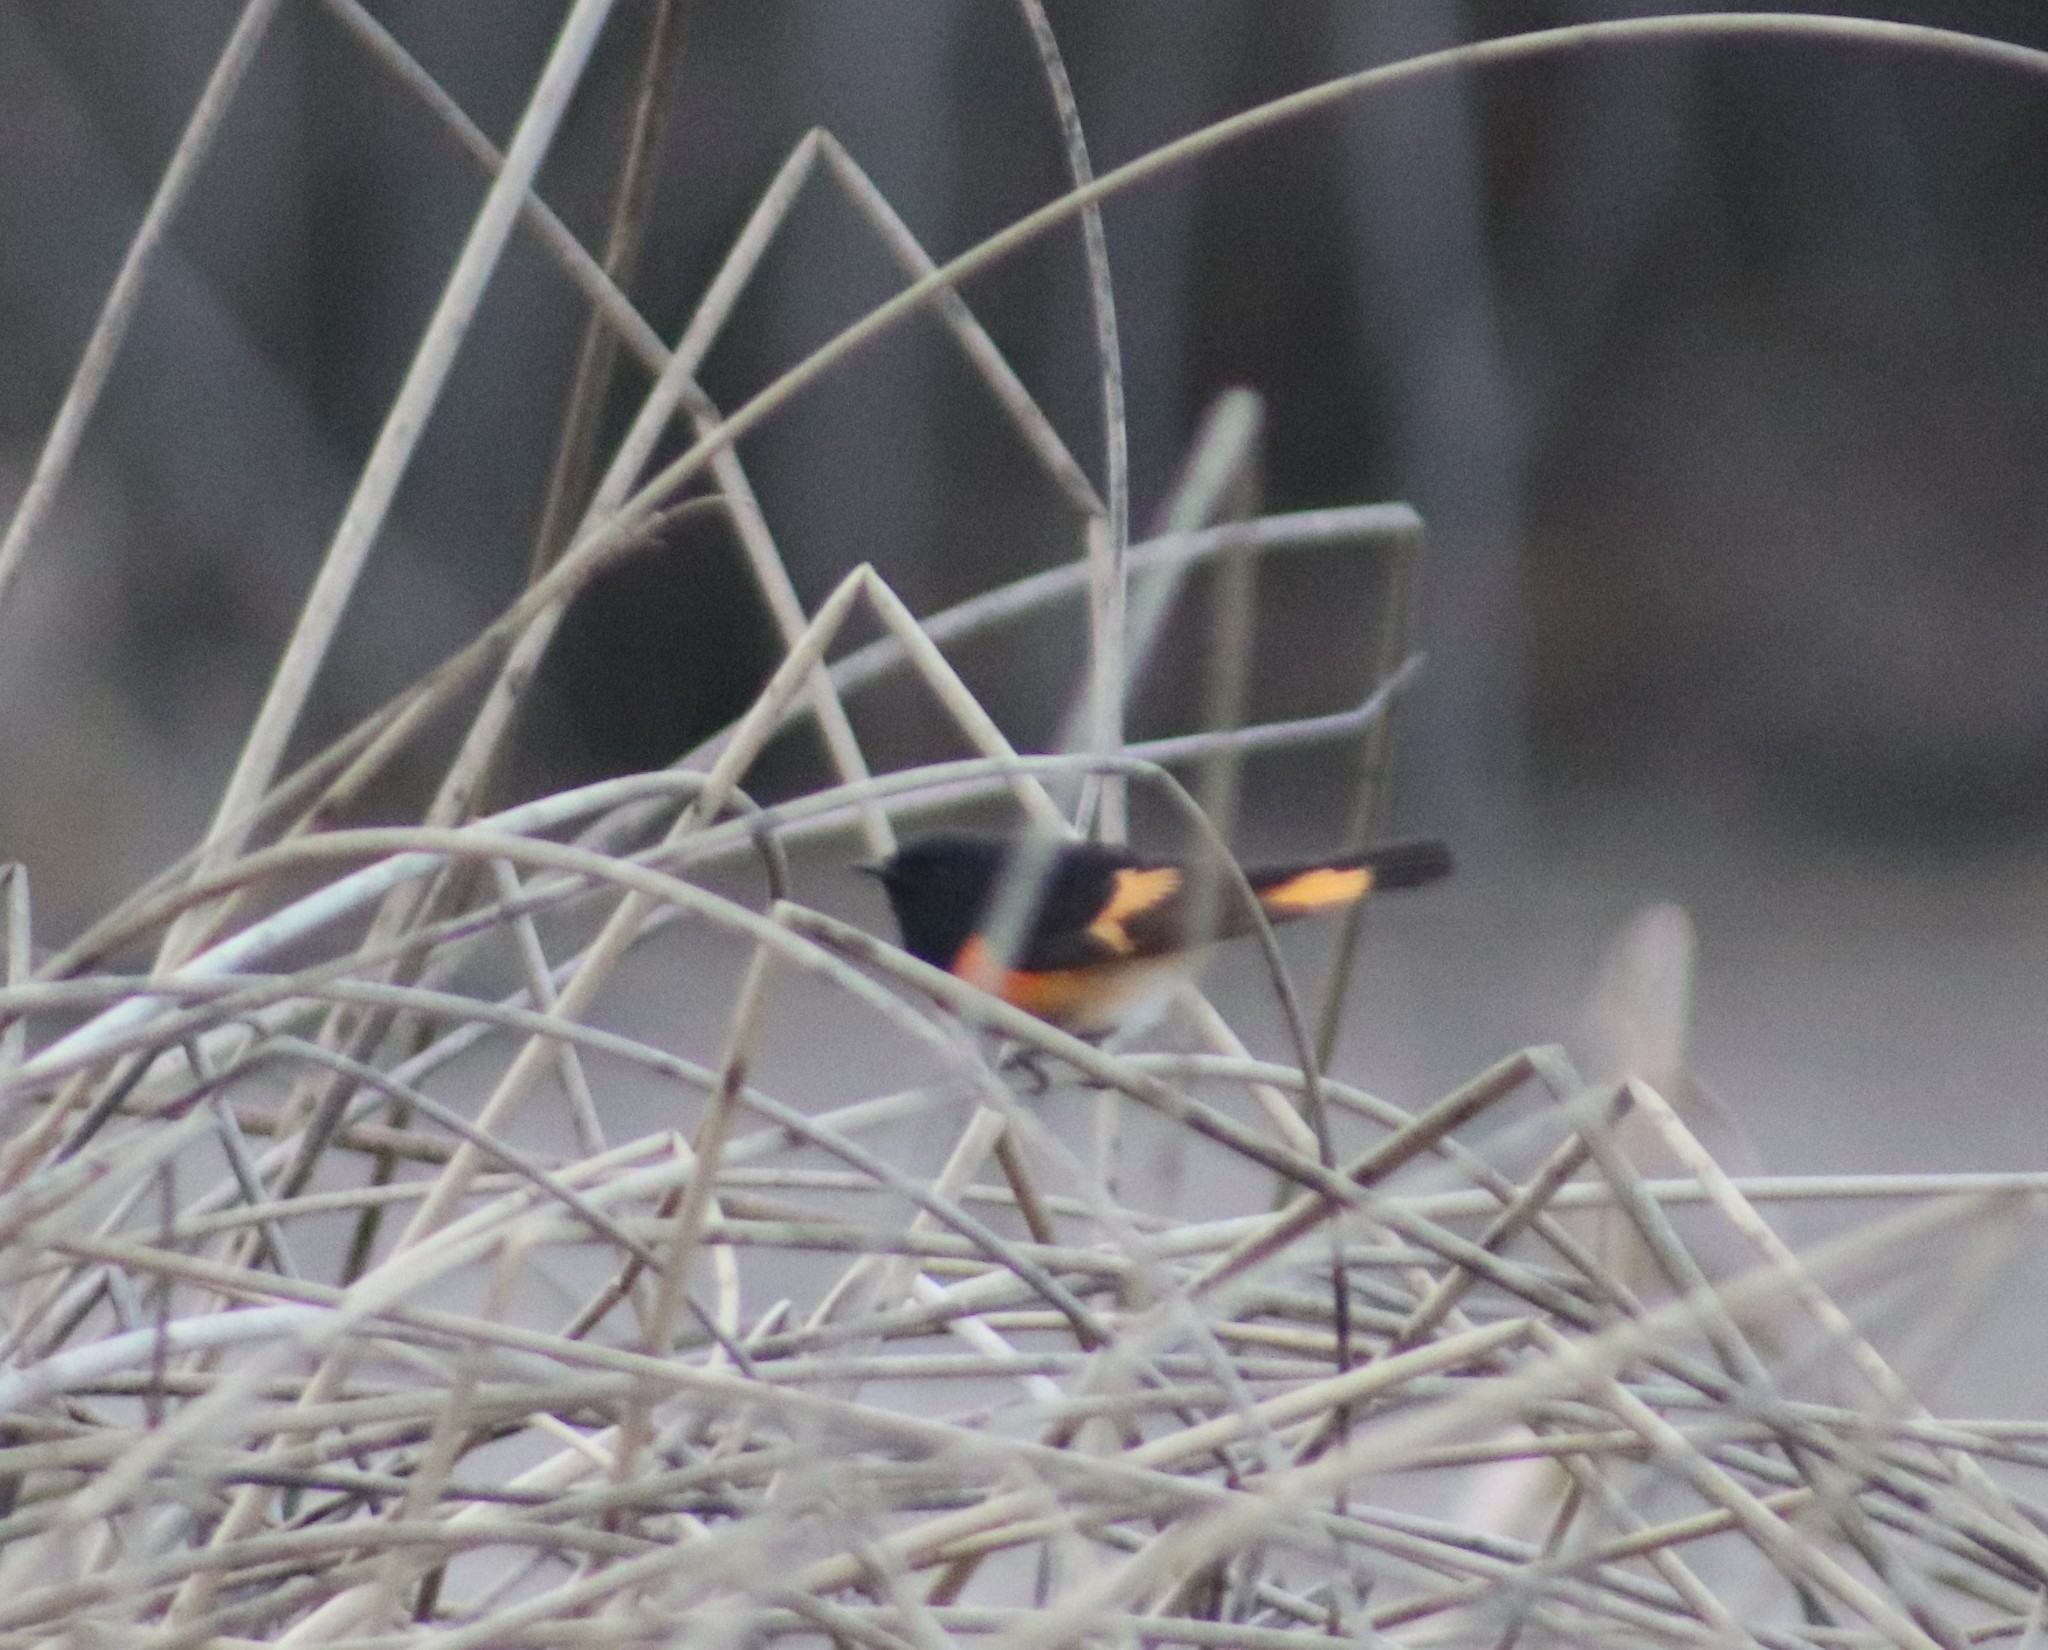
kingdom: Animalia
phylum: Chordata
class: Aves
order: Passeriformes
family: Parulidae
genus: Setophaga
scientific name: Setophaga ruticilla
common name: American redstart
